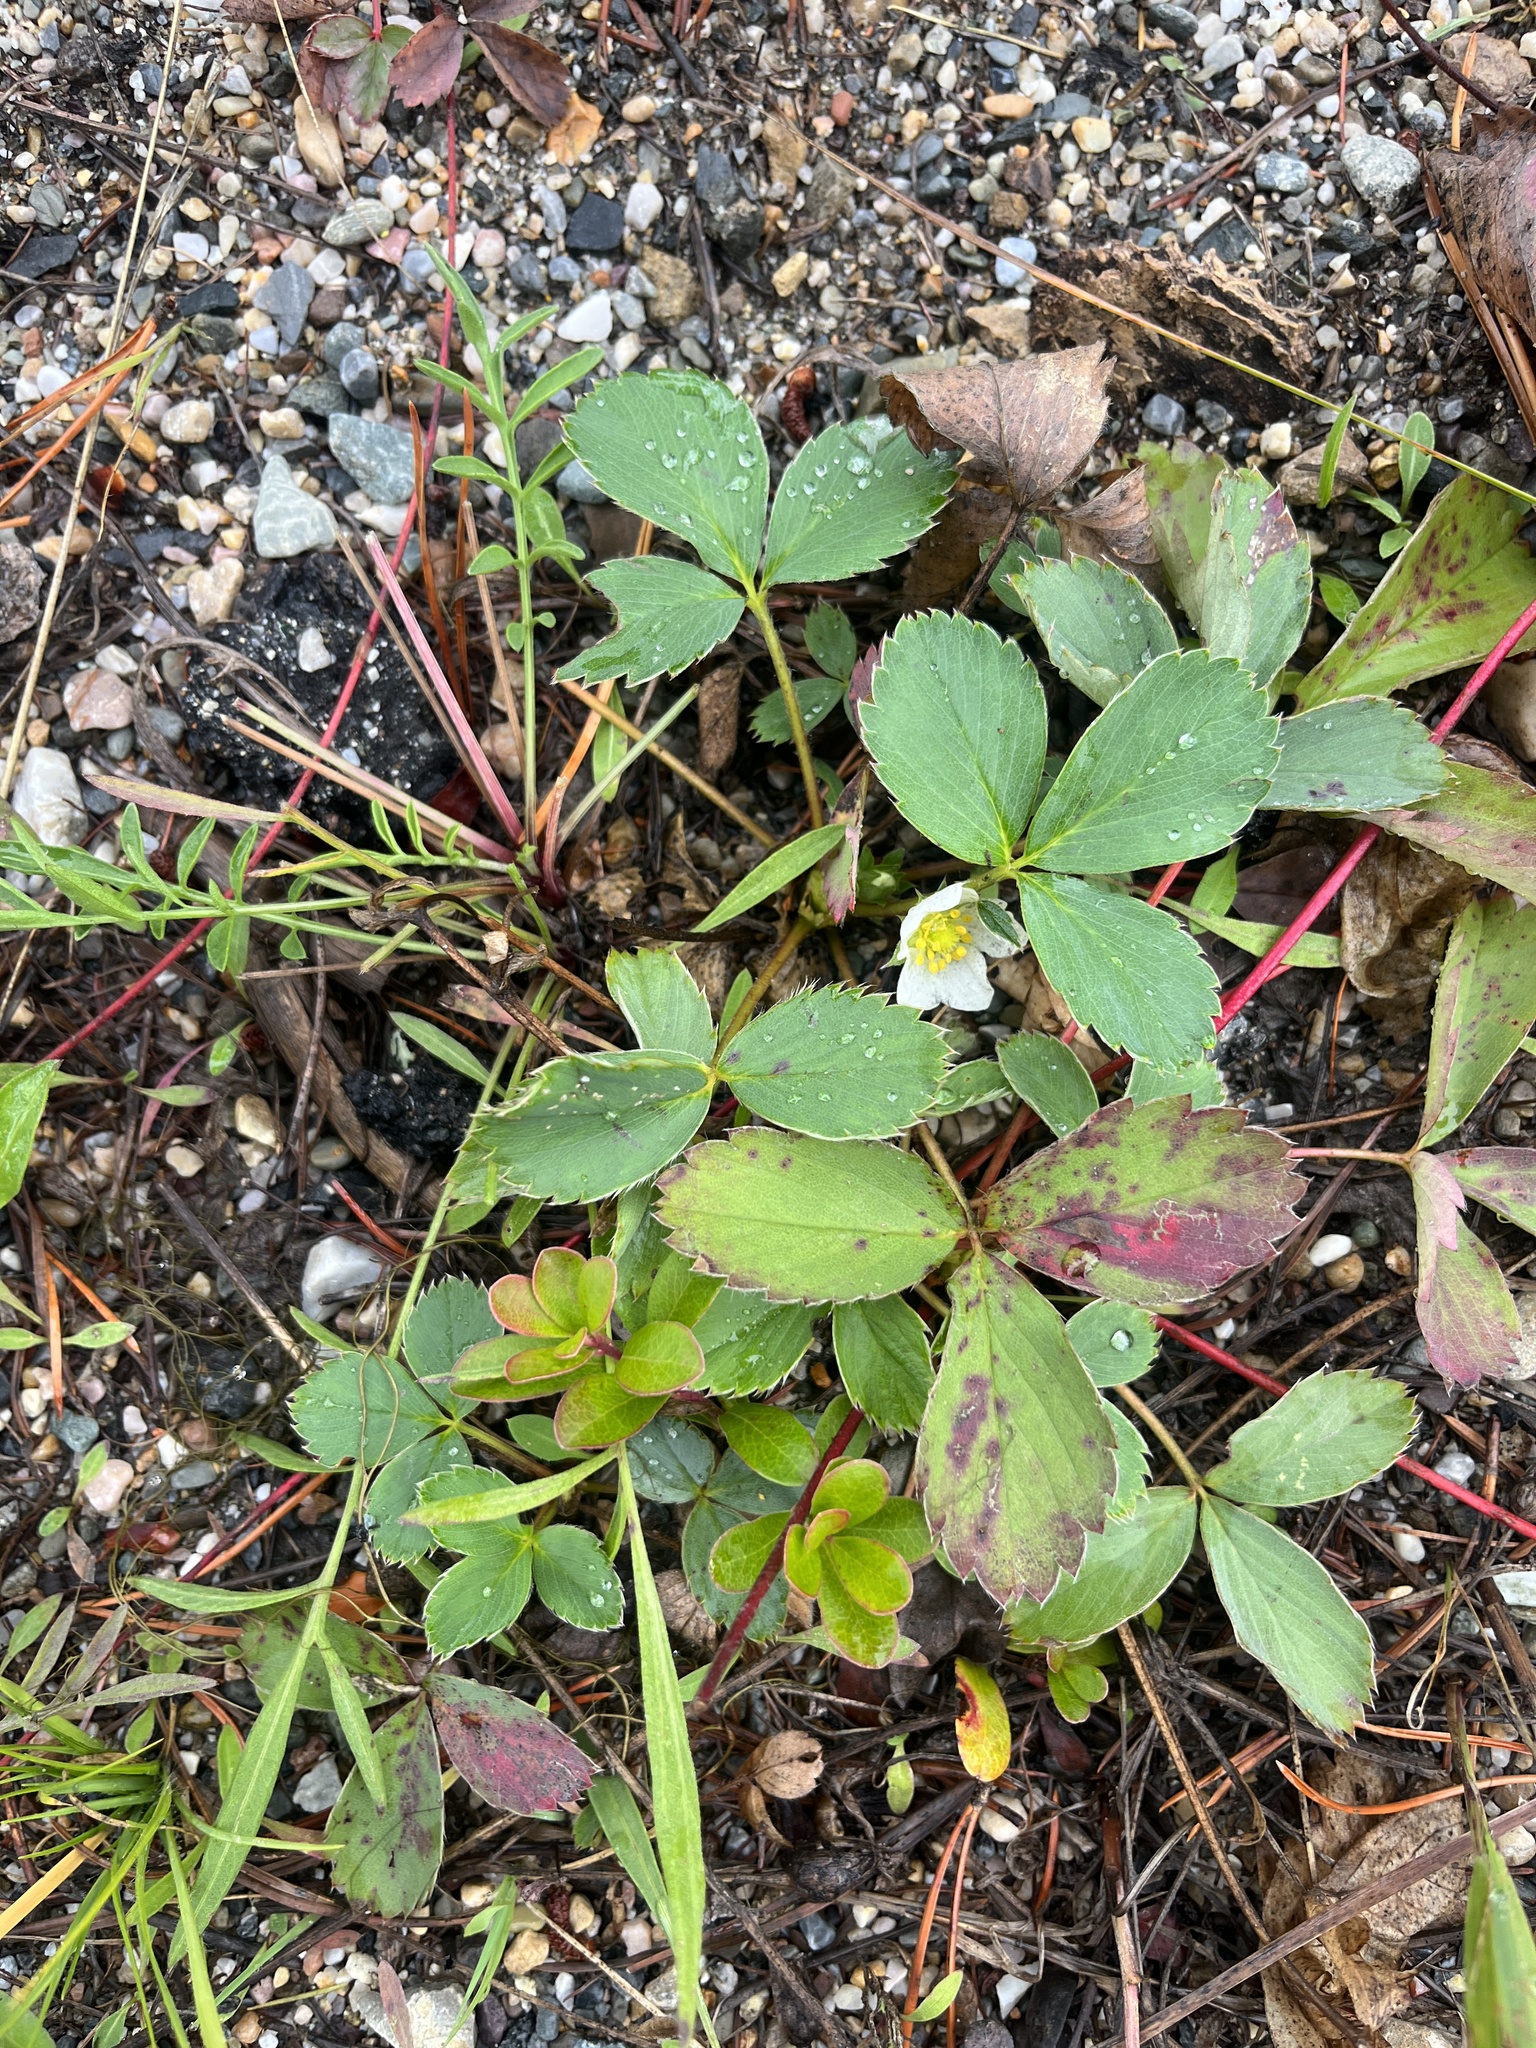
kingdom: Plantae
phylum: Tracheophyta
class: Magnoliopsida
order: Rosales
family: Rosaceae
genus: Fragaria
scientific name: Fragaria virginiana
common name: Thickleaved wild strawberry
